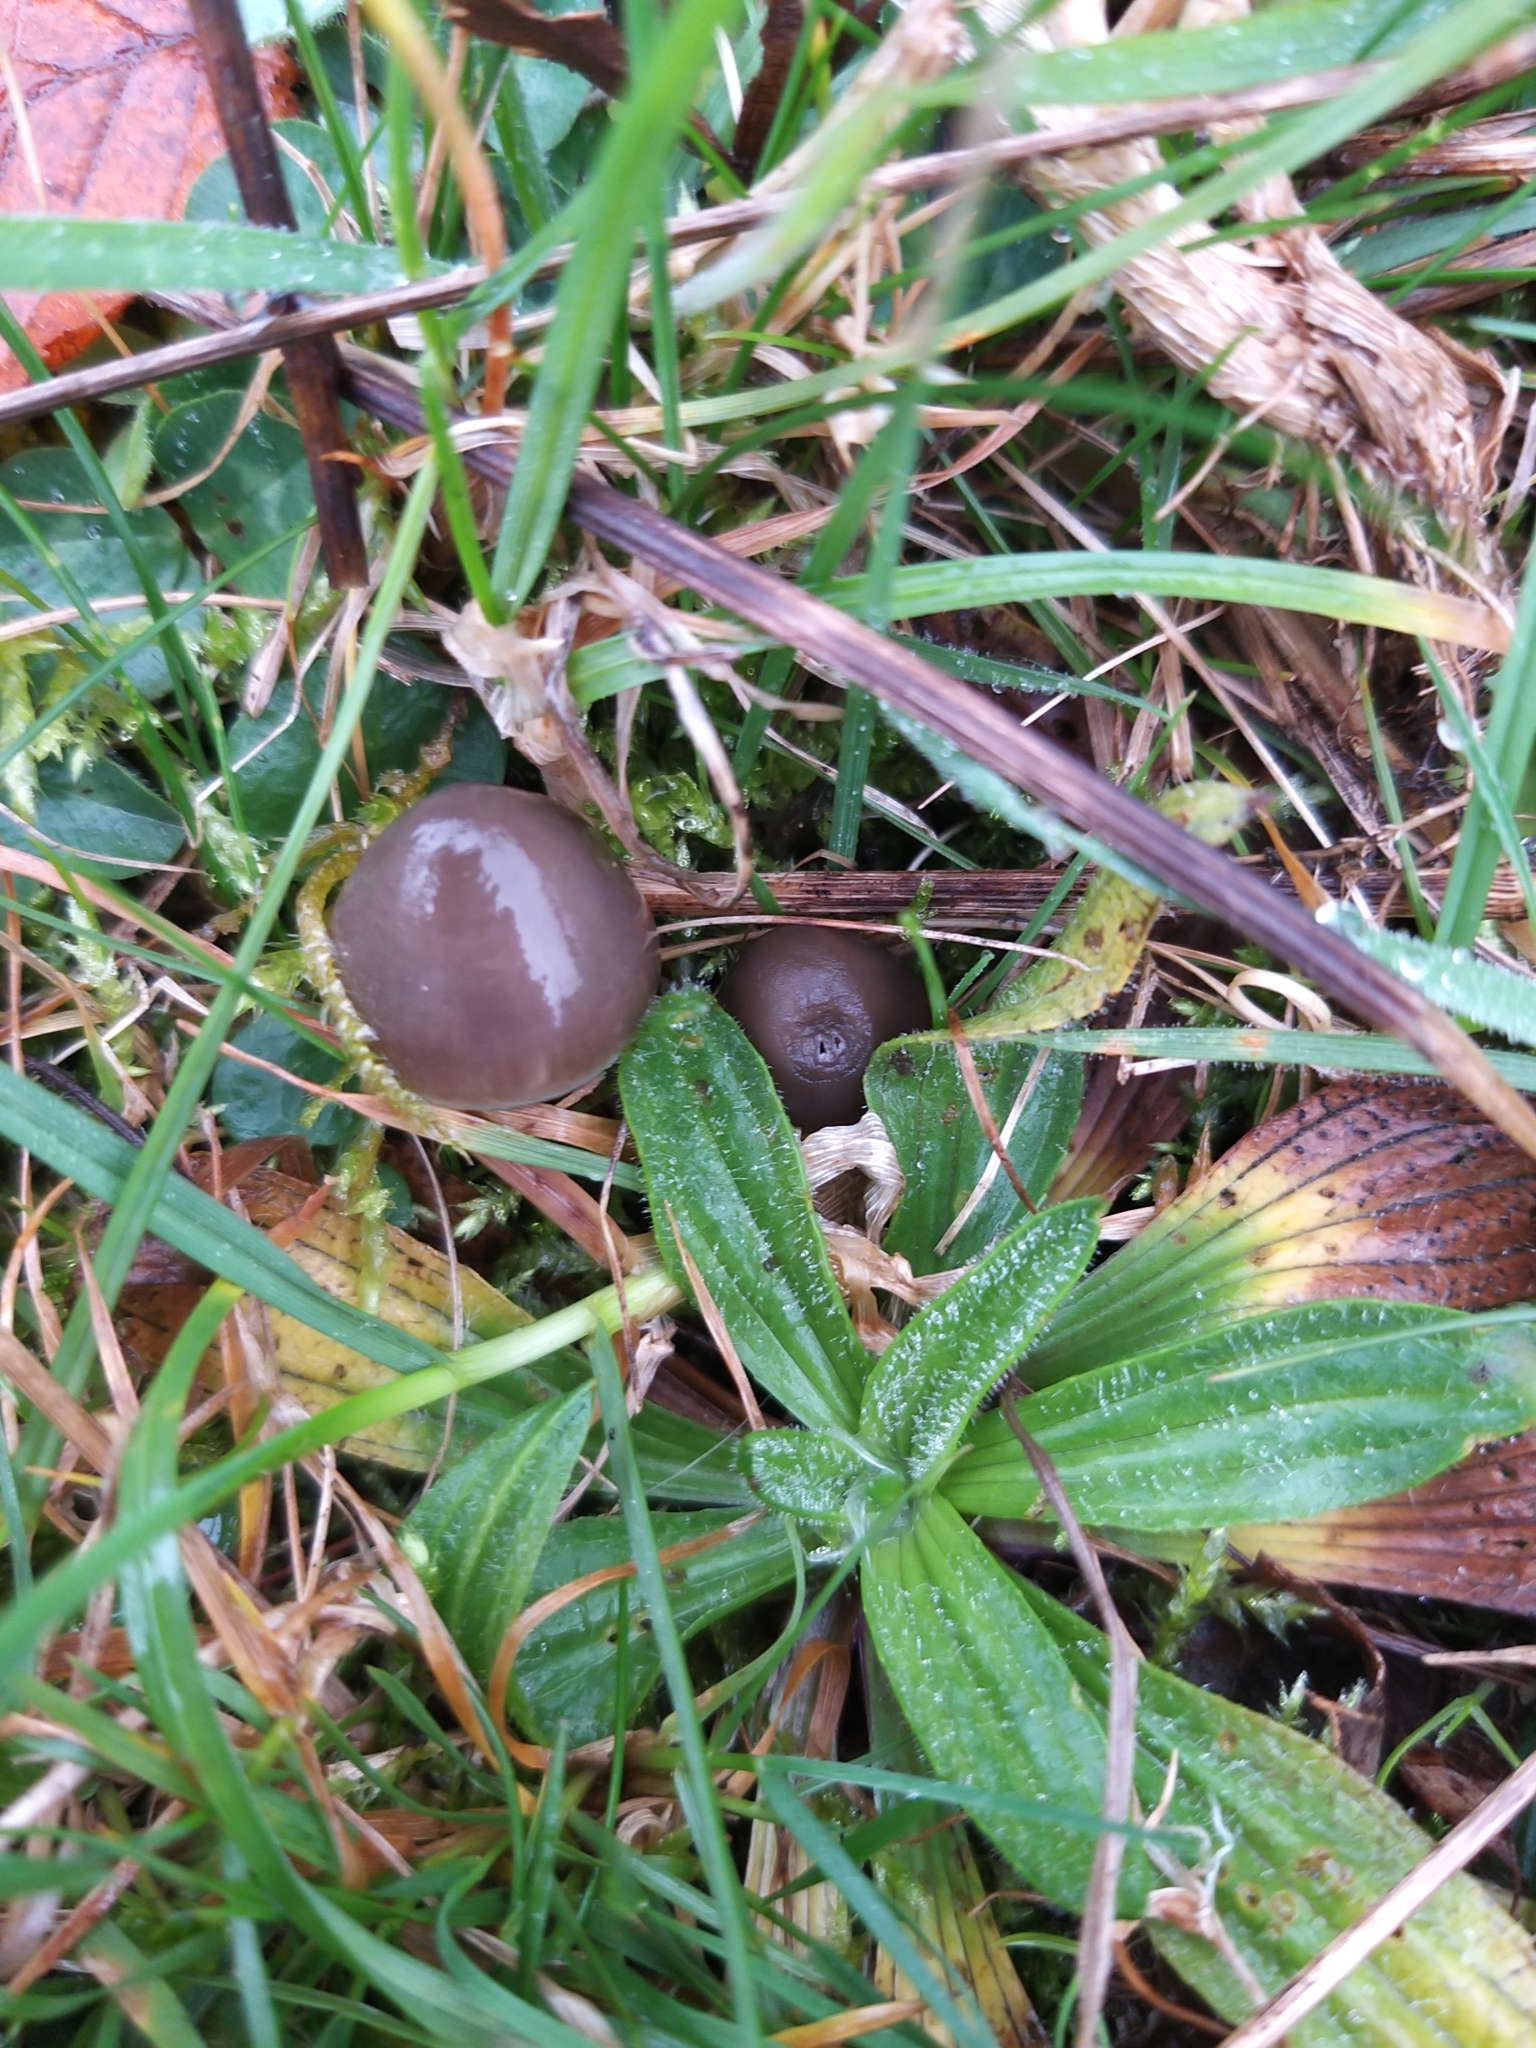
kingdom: Fungi
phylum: Basidiomycota
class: Agaricomycetes
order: Agaricales
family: Hygrophoraceae
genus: Gliophorus
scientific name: Gliophorus irrigatus
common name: Slimy waxcap
